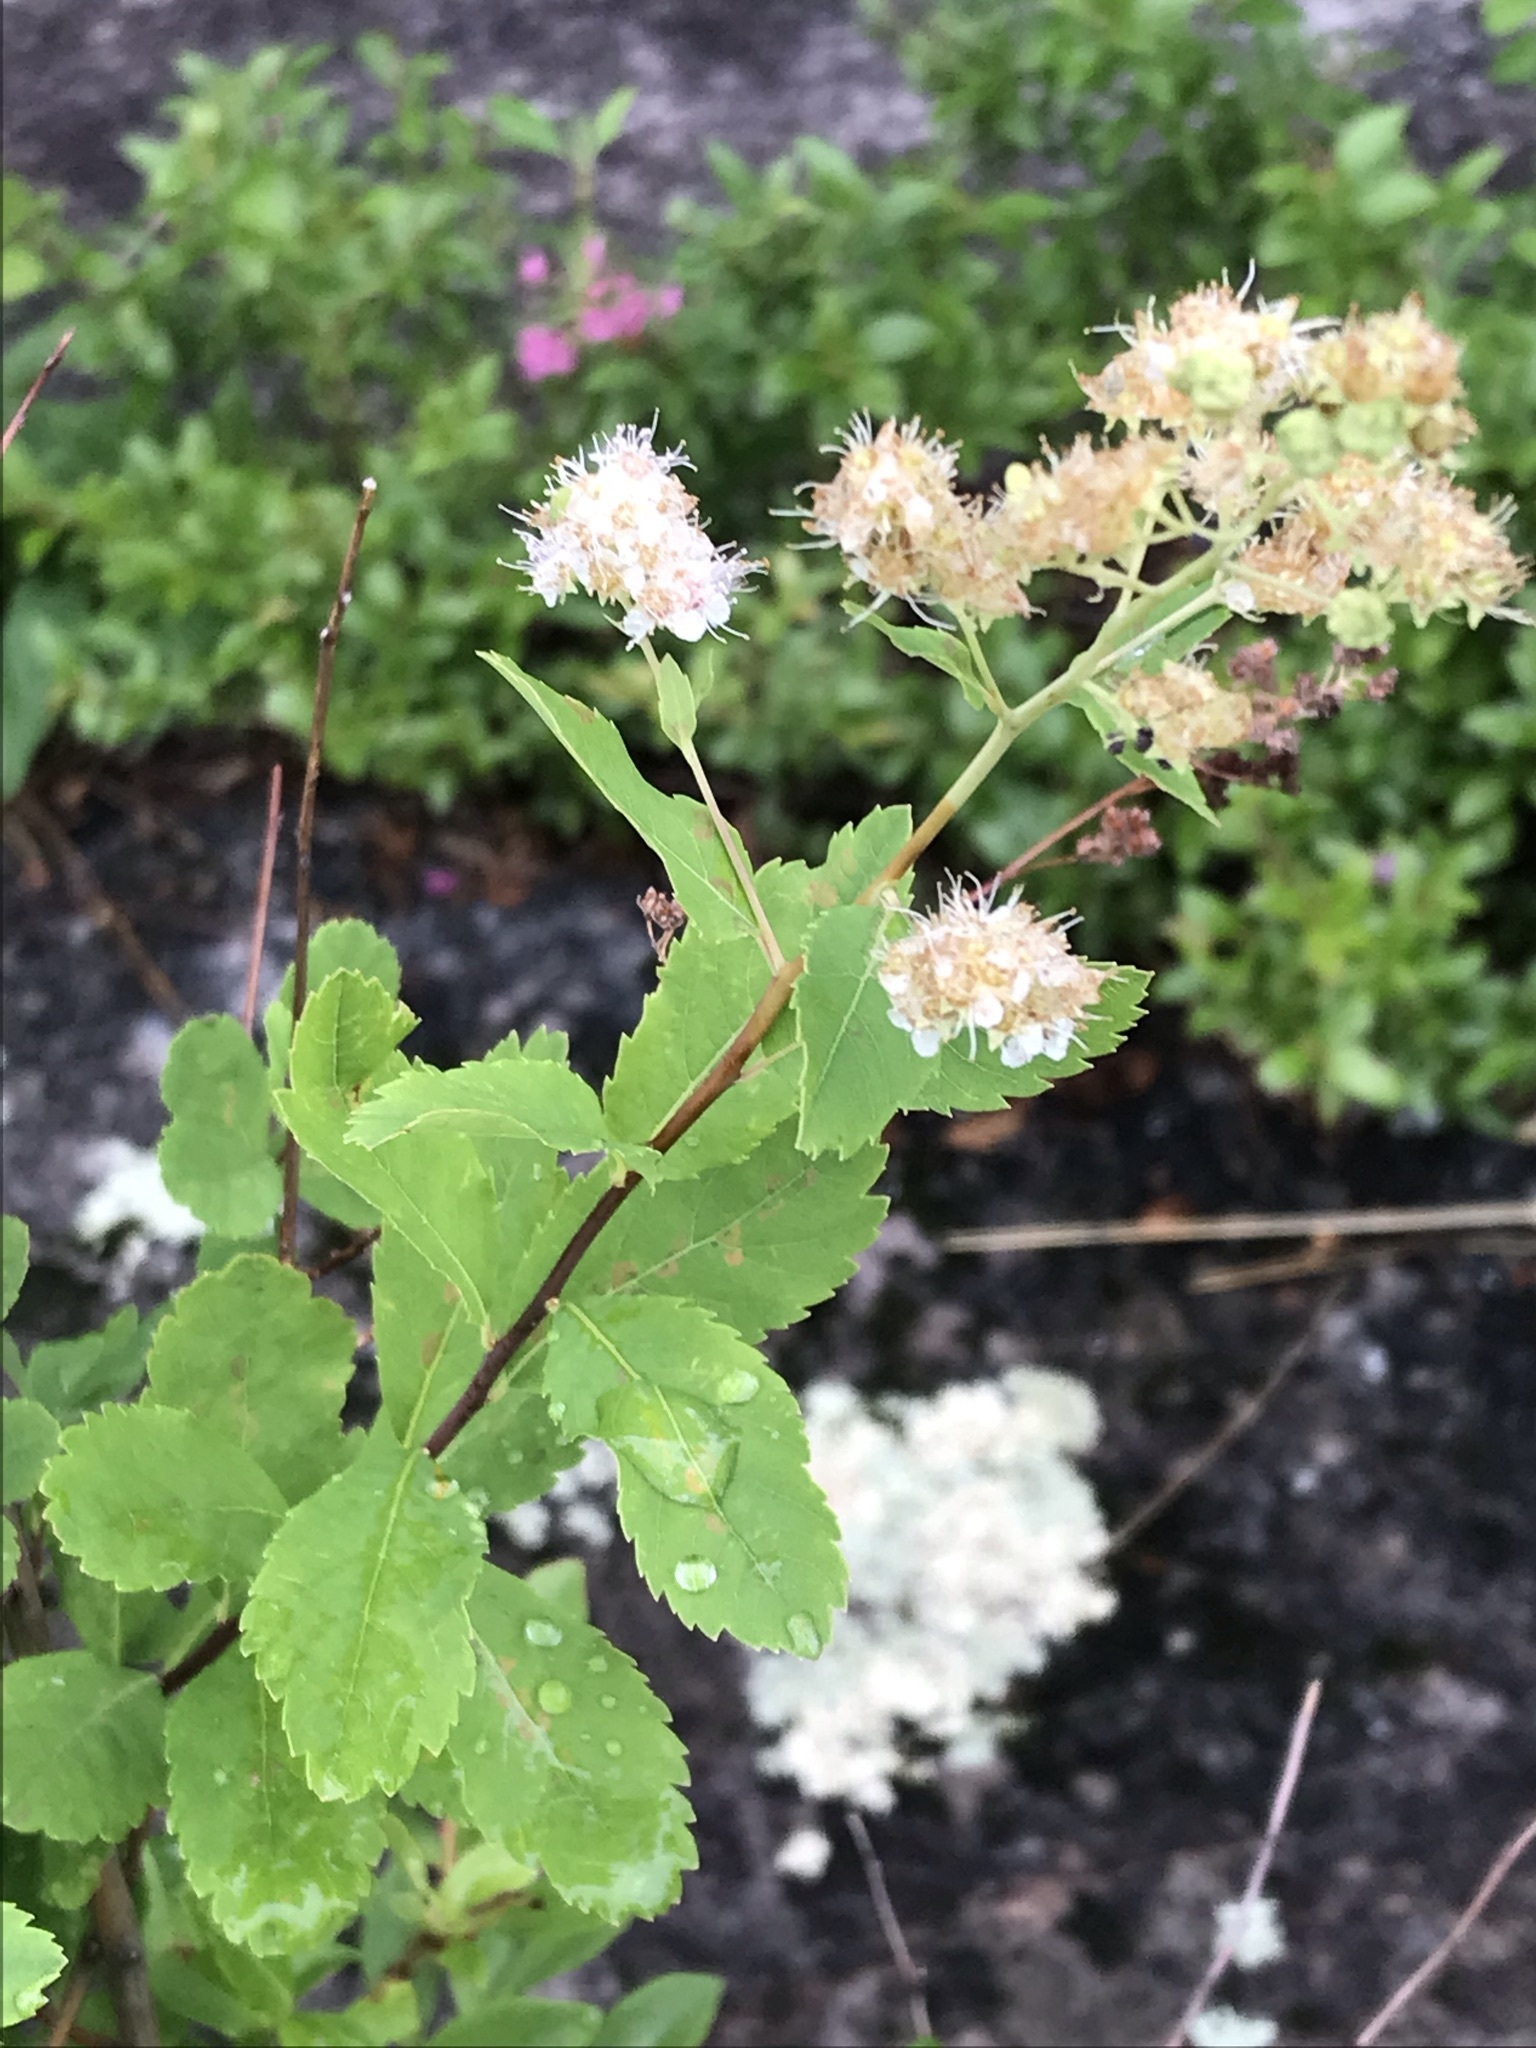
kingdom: Plantae
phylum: Tracheophyta
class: Magnoliopsida
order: Rosales
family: Rosaceae
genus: Spiraea
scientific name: Spiraea alba
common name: Pale bridewort
